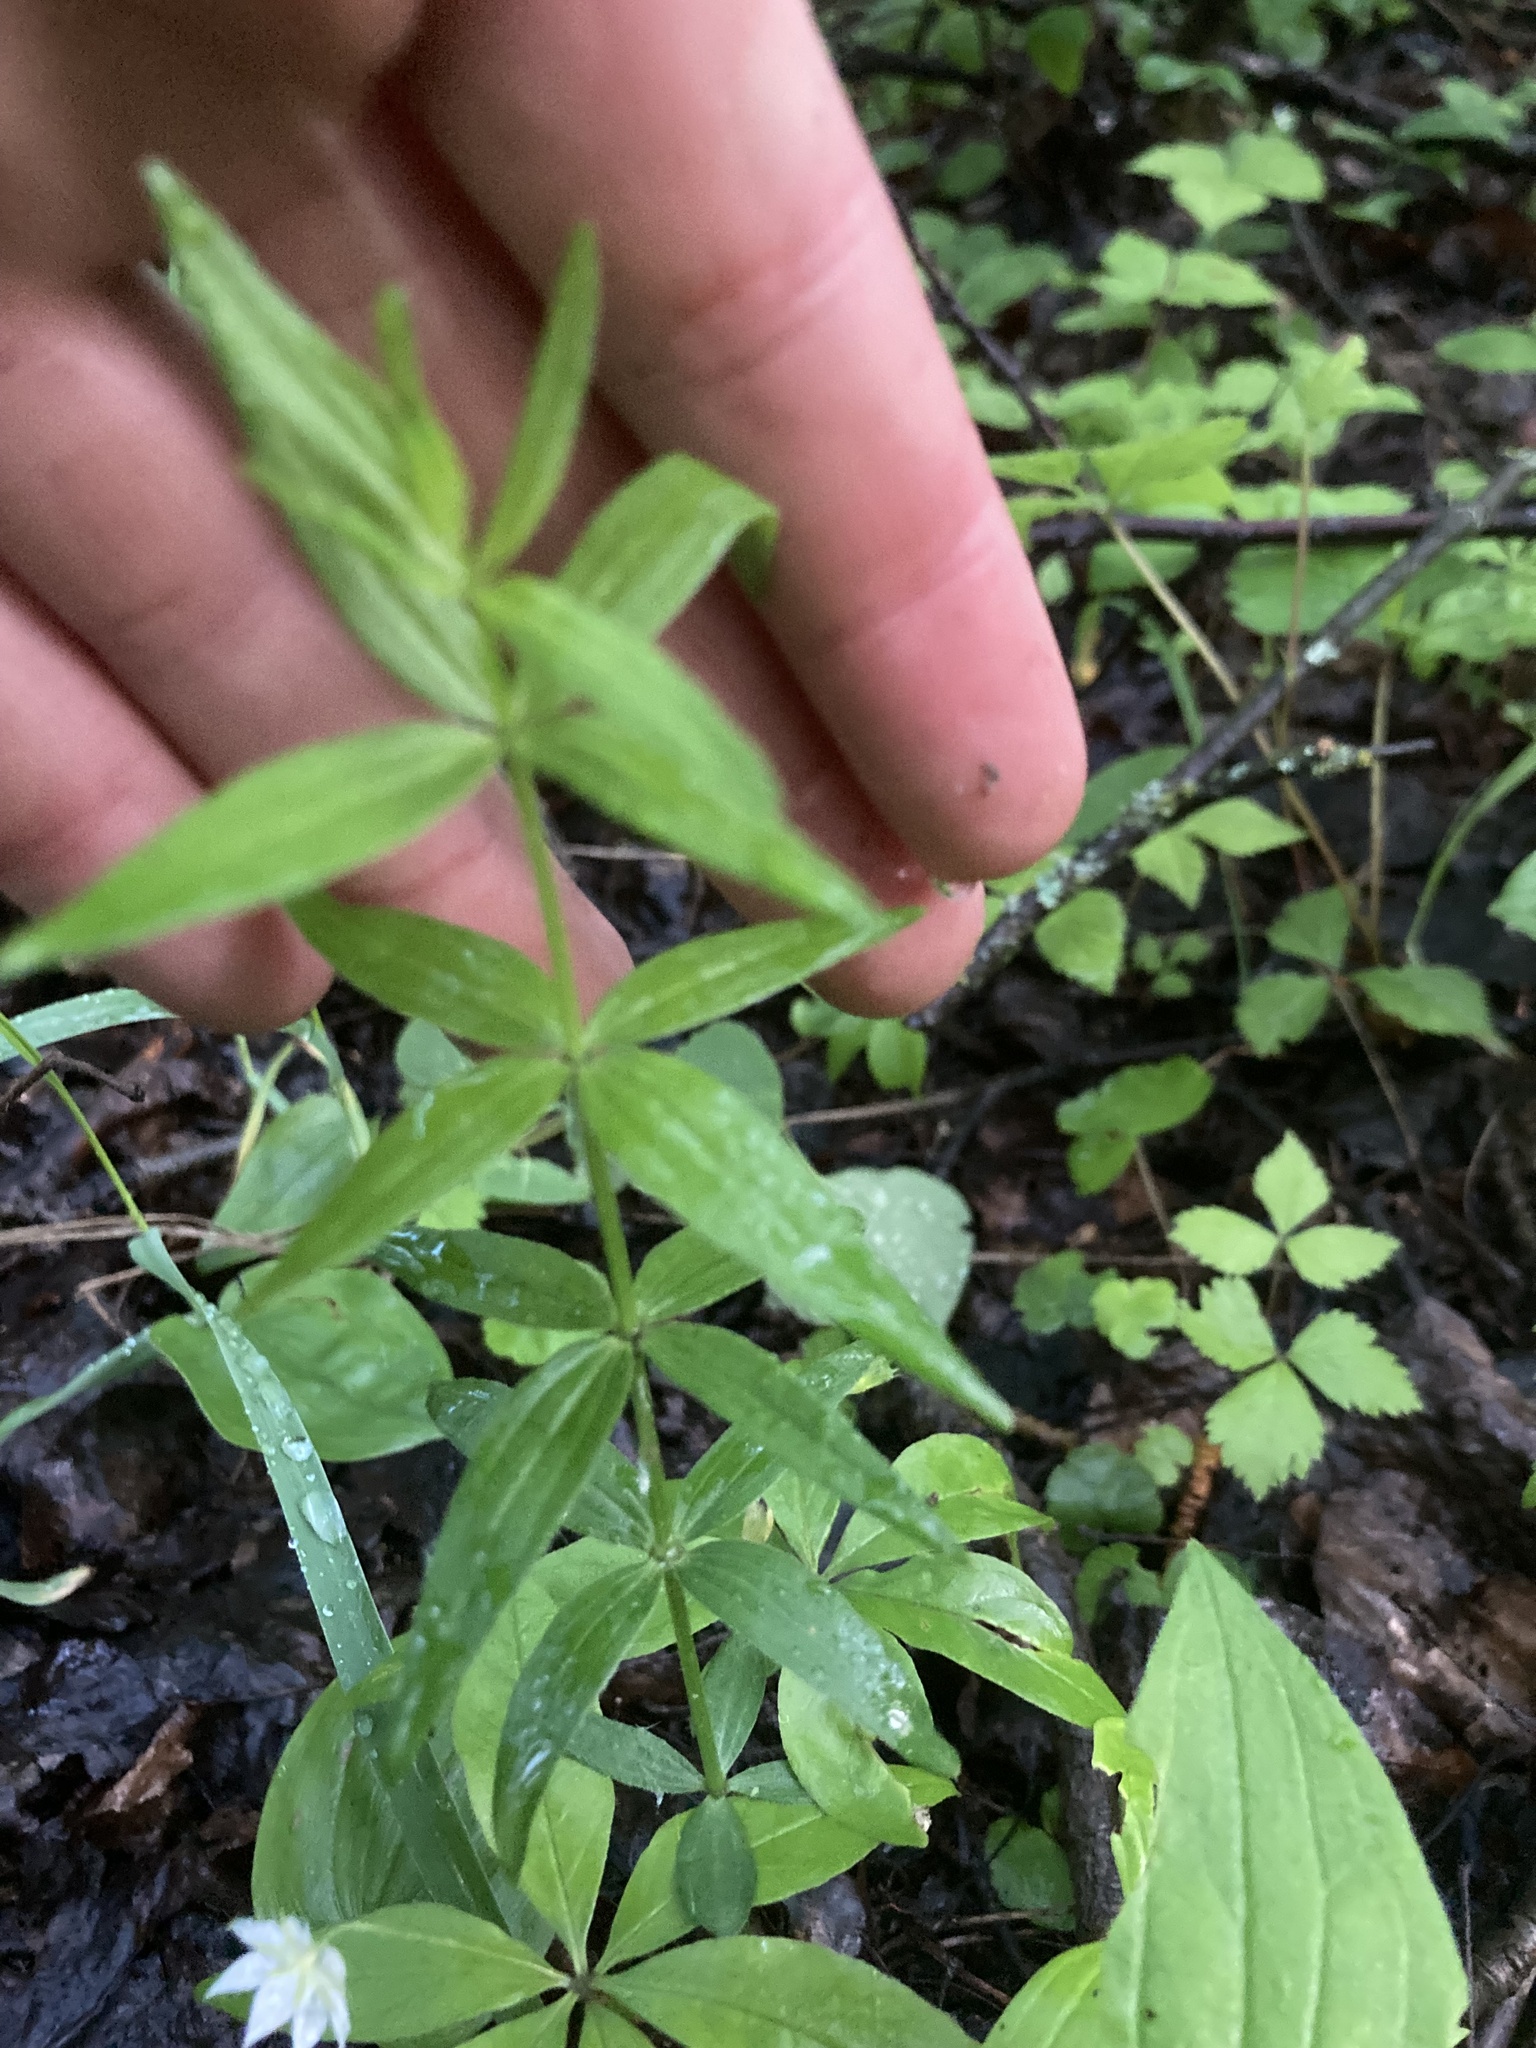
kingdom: Plantae
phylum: Tracheophyta
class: Magnoliopsida
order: Gentianales
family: Rubiaceae
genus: Galium
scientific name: Galium boreale
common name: Northern bedstraw
